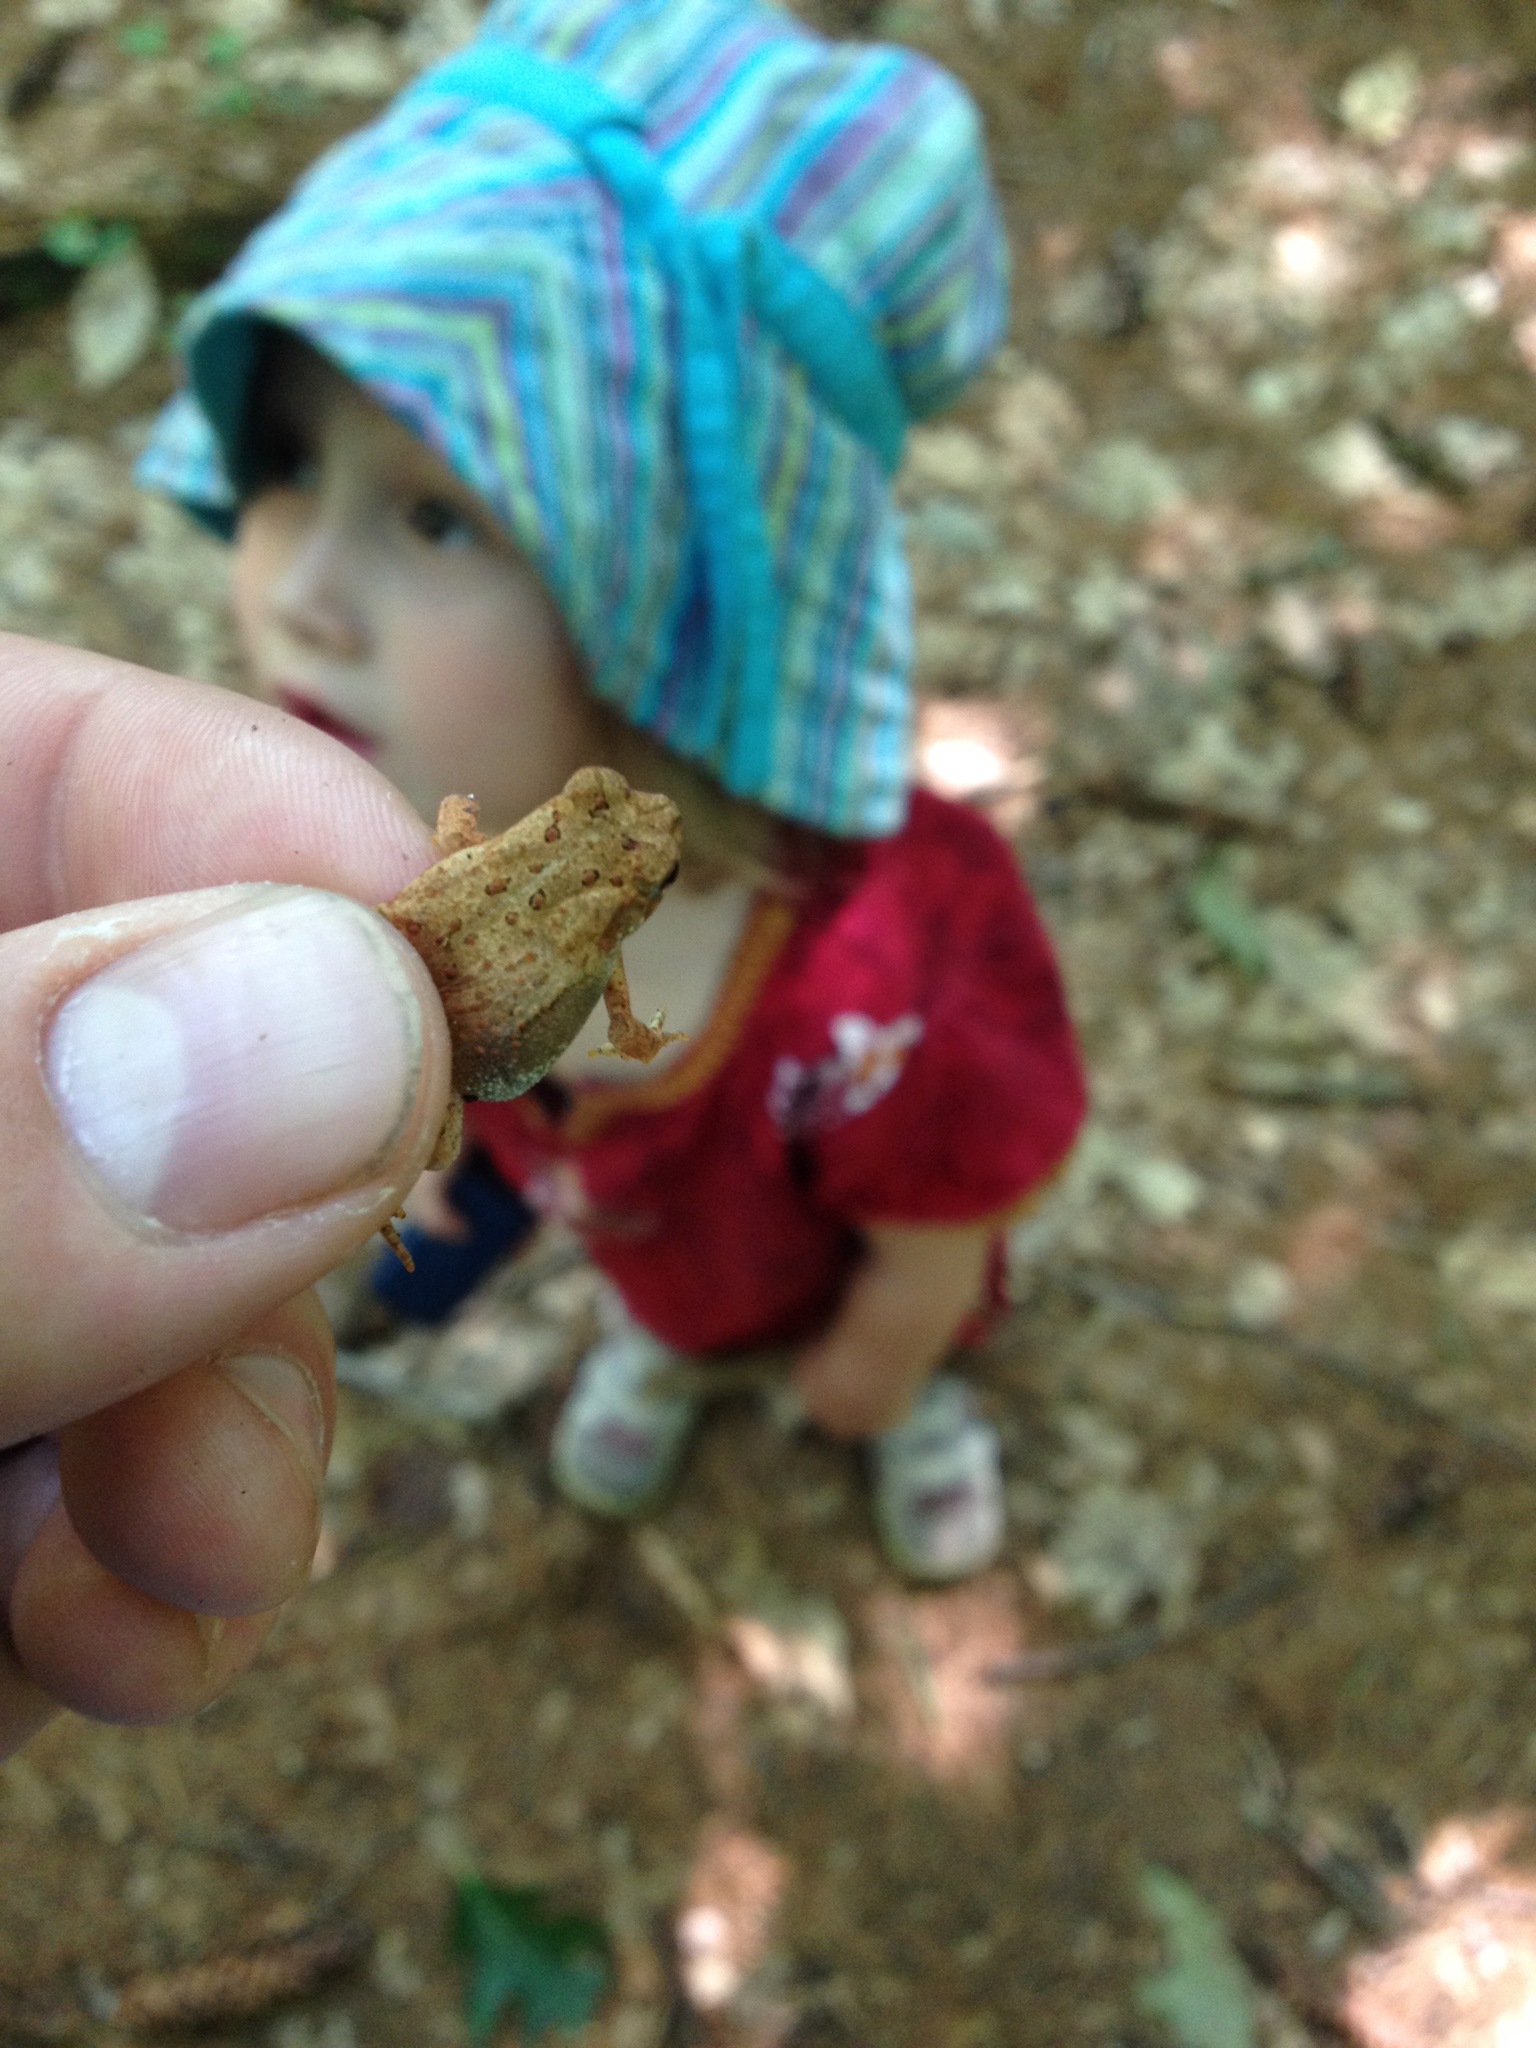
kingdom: Animalia
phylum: Chordata
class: Amphibia
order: Anura
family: Bufonidae
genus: Anaxyrus
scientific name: Anaxyrus americanus
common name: American toad
